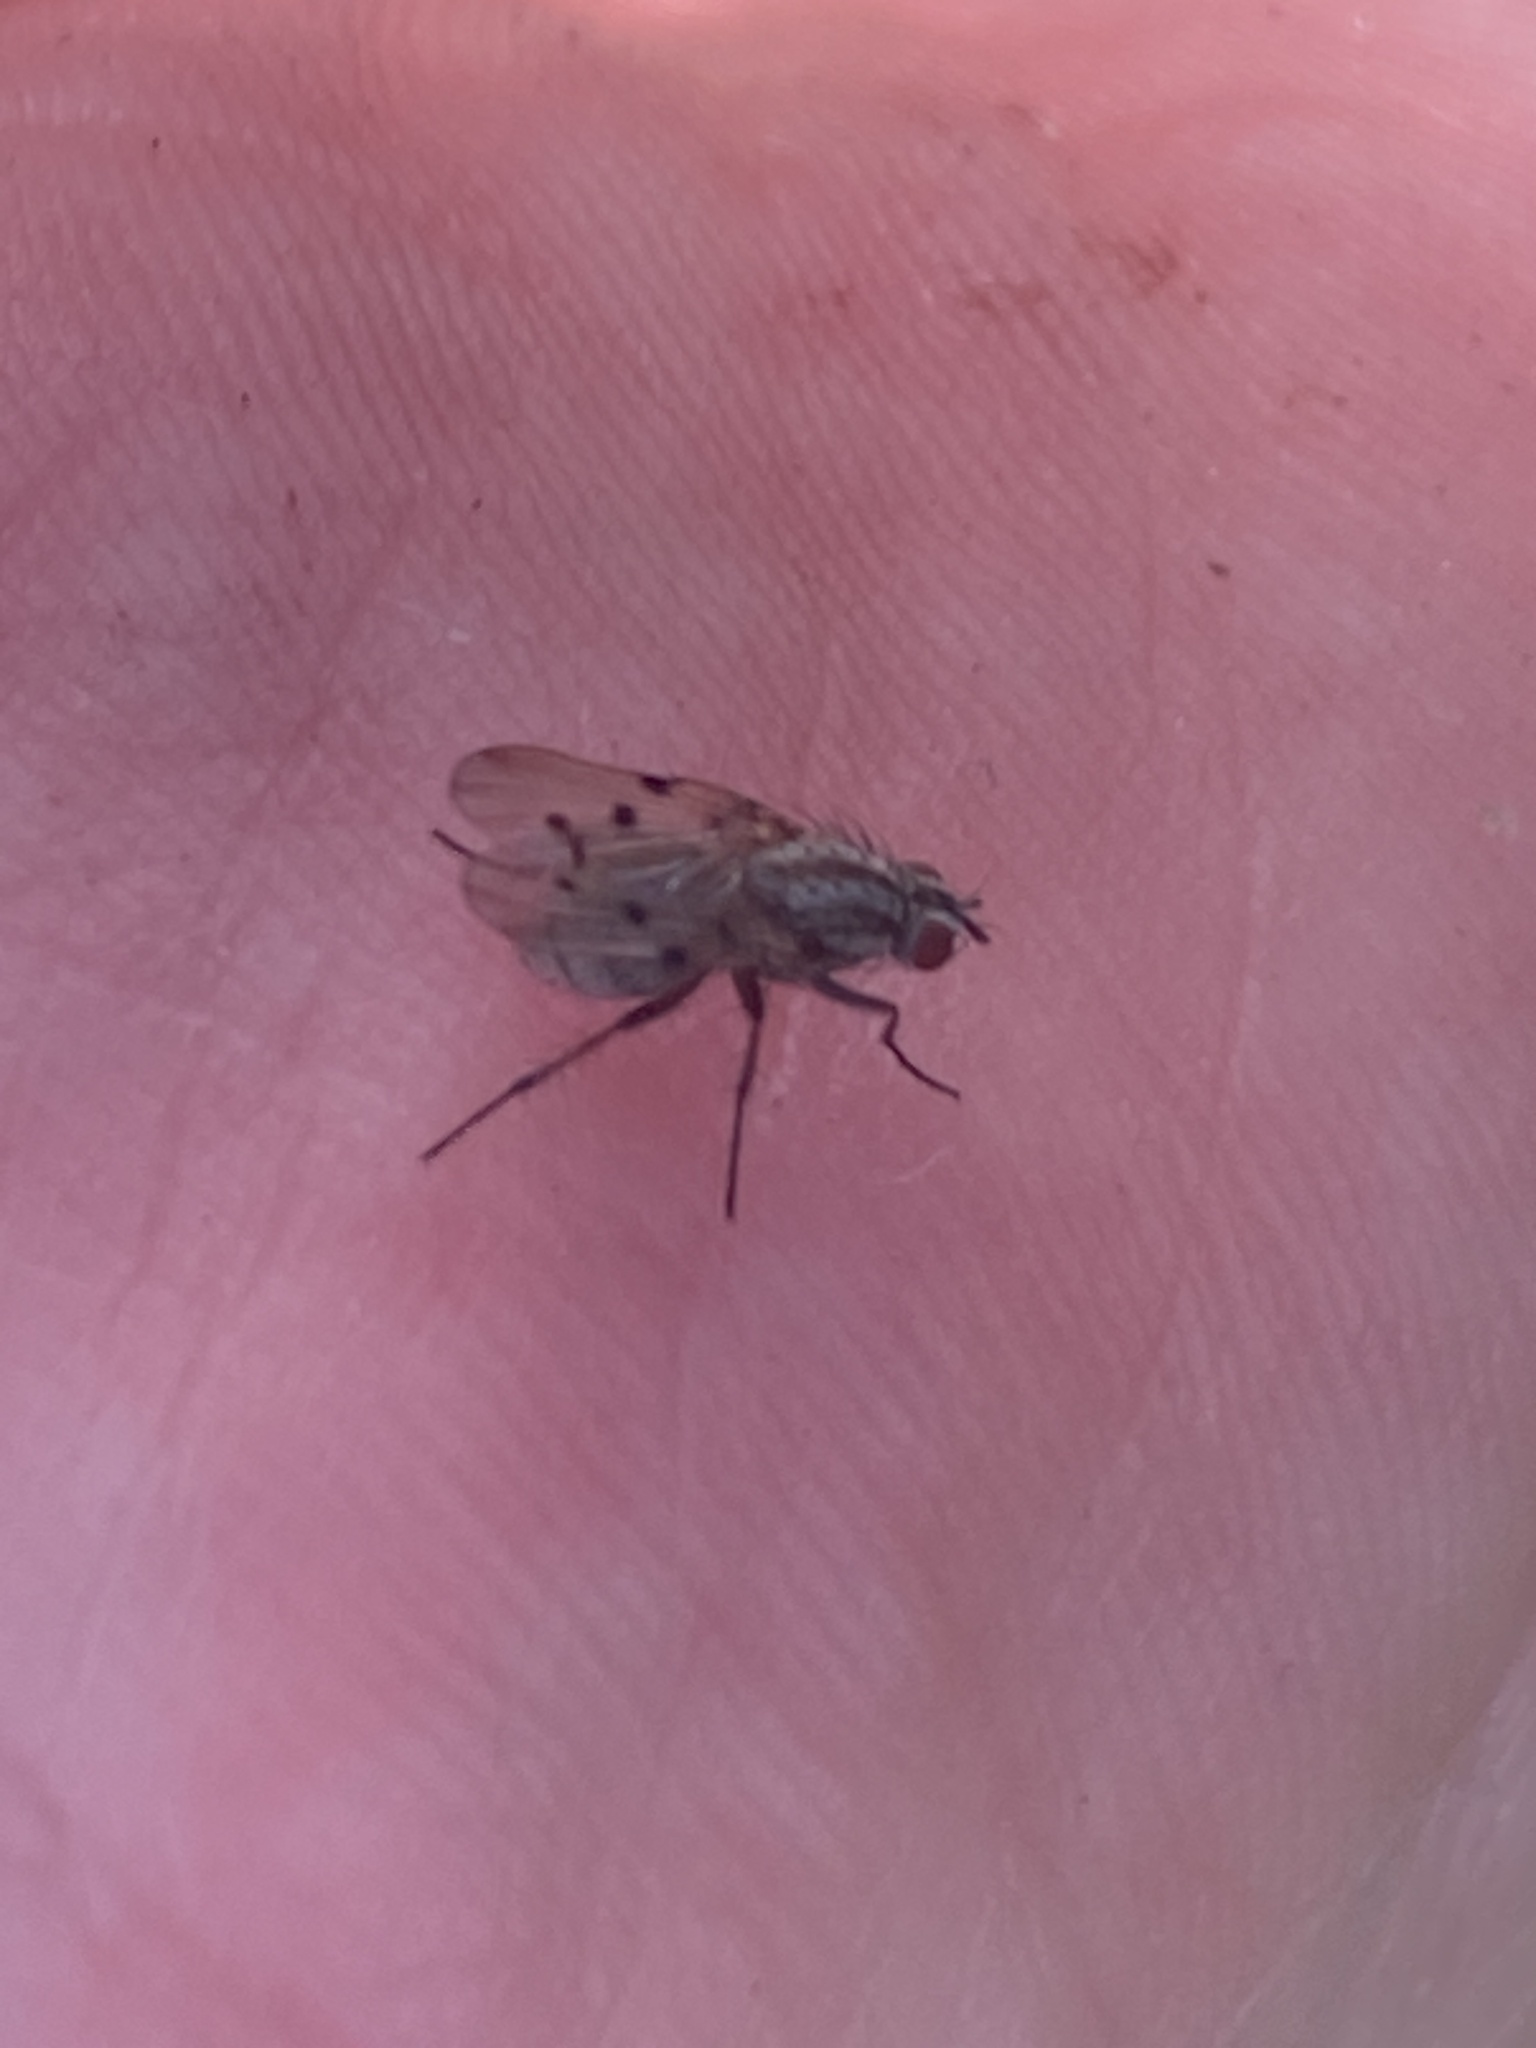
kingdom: Animalia
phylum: Arthropoda
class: Insecta
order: Diptera
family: Anthomyiidae
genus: Anthomyia
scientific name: Anthomyia punctipennis
